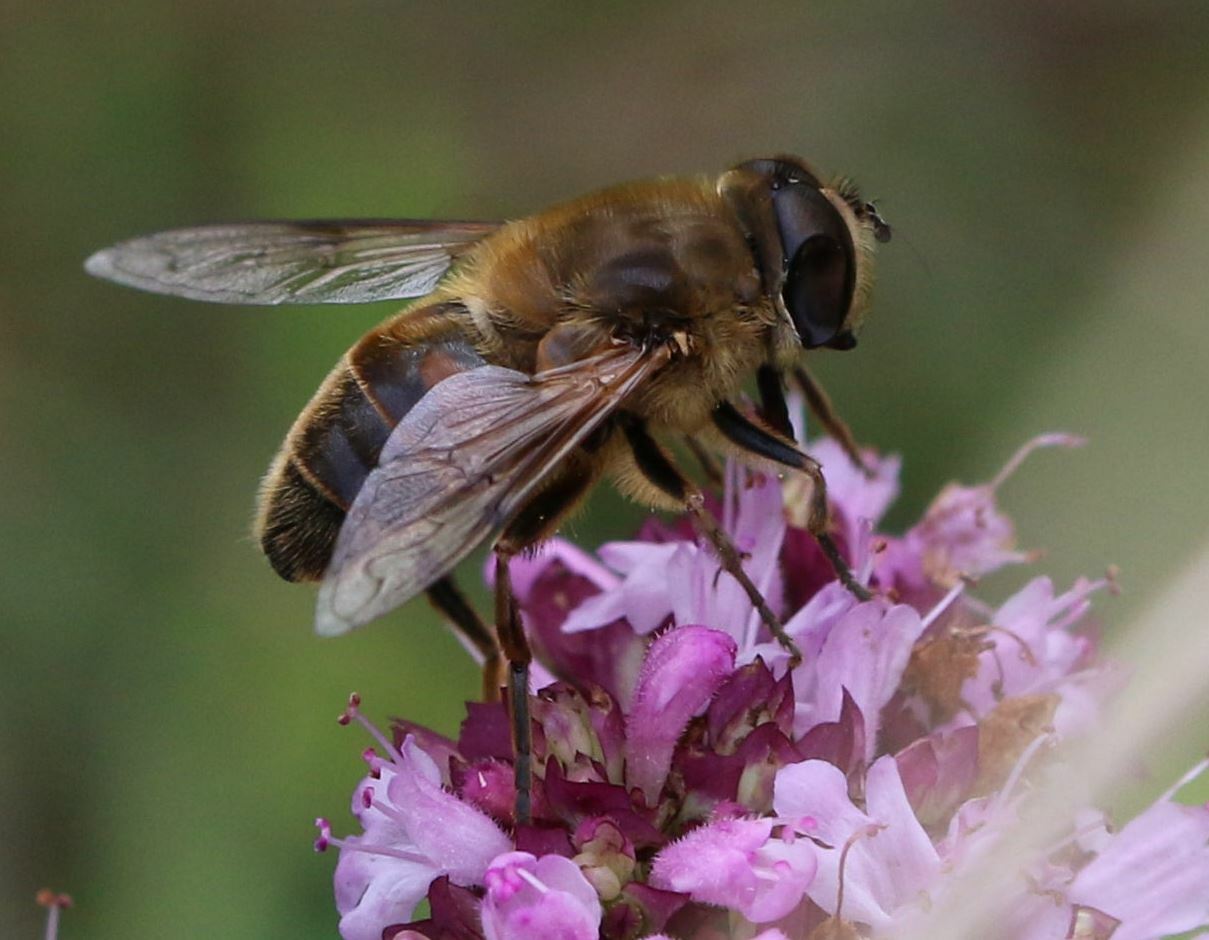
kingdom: Animalia
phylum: Arthropoda
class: Insecta
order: Diptera
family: Syrphidae
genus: Eristalis
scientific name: Eristalis tenax
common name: Drone fly
